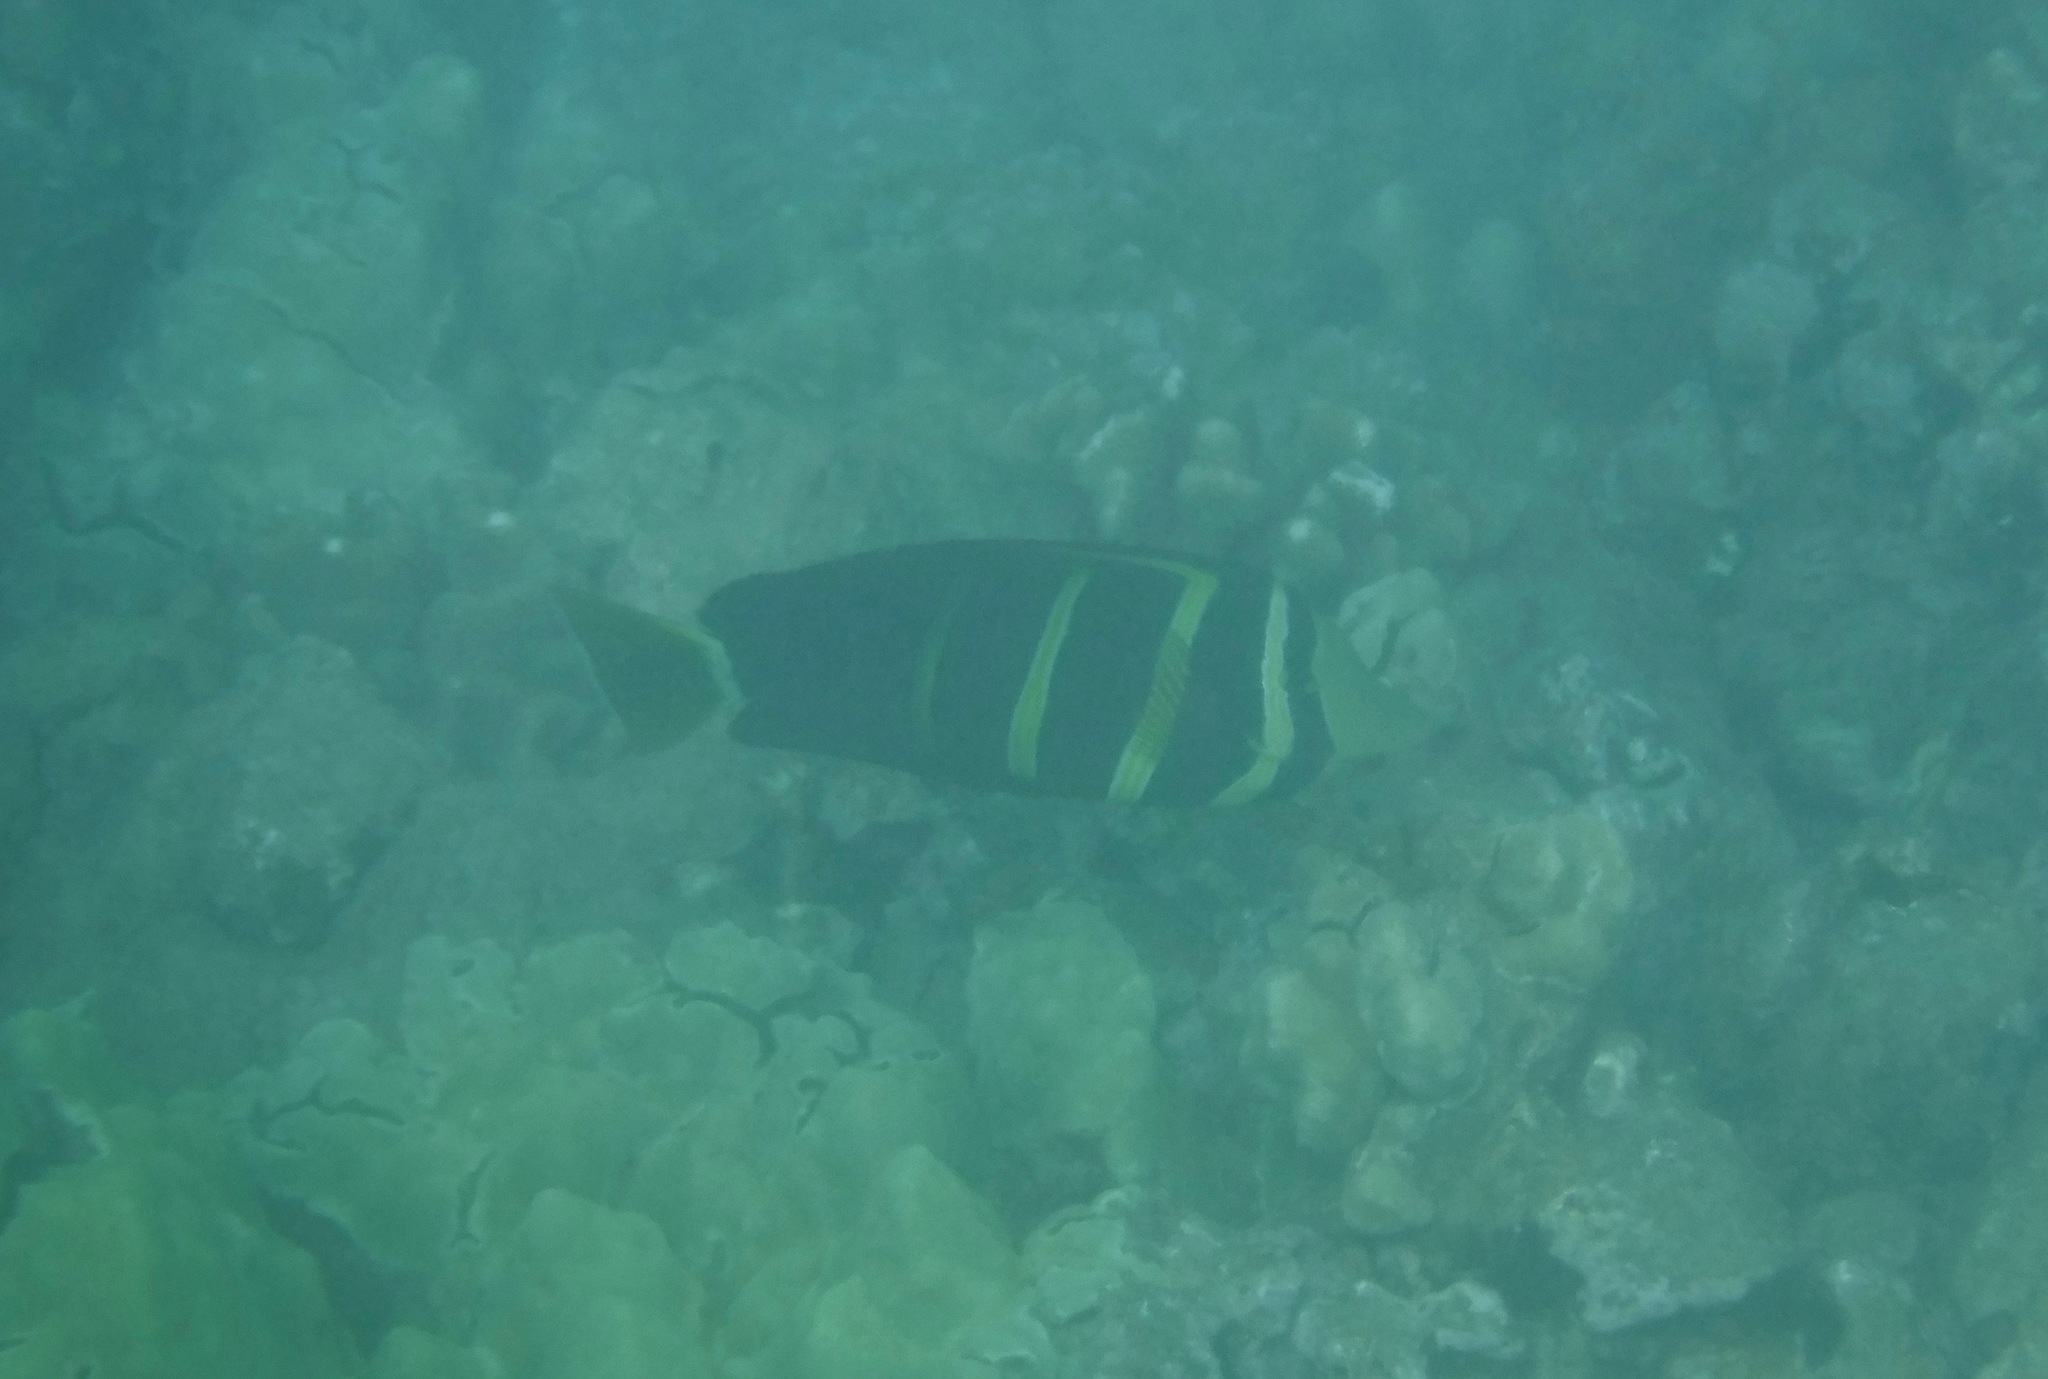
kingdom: Animalia
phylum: Chordata
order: Perciformes
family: Acanthuridae
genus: Zebrasoma
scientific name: Zebrasoma veliferum
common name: Sailfin surgeonfish
